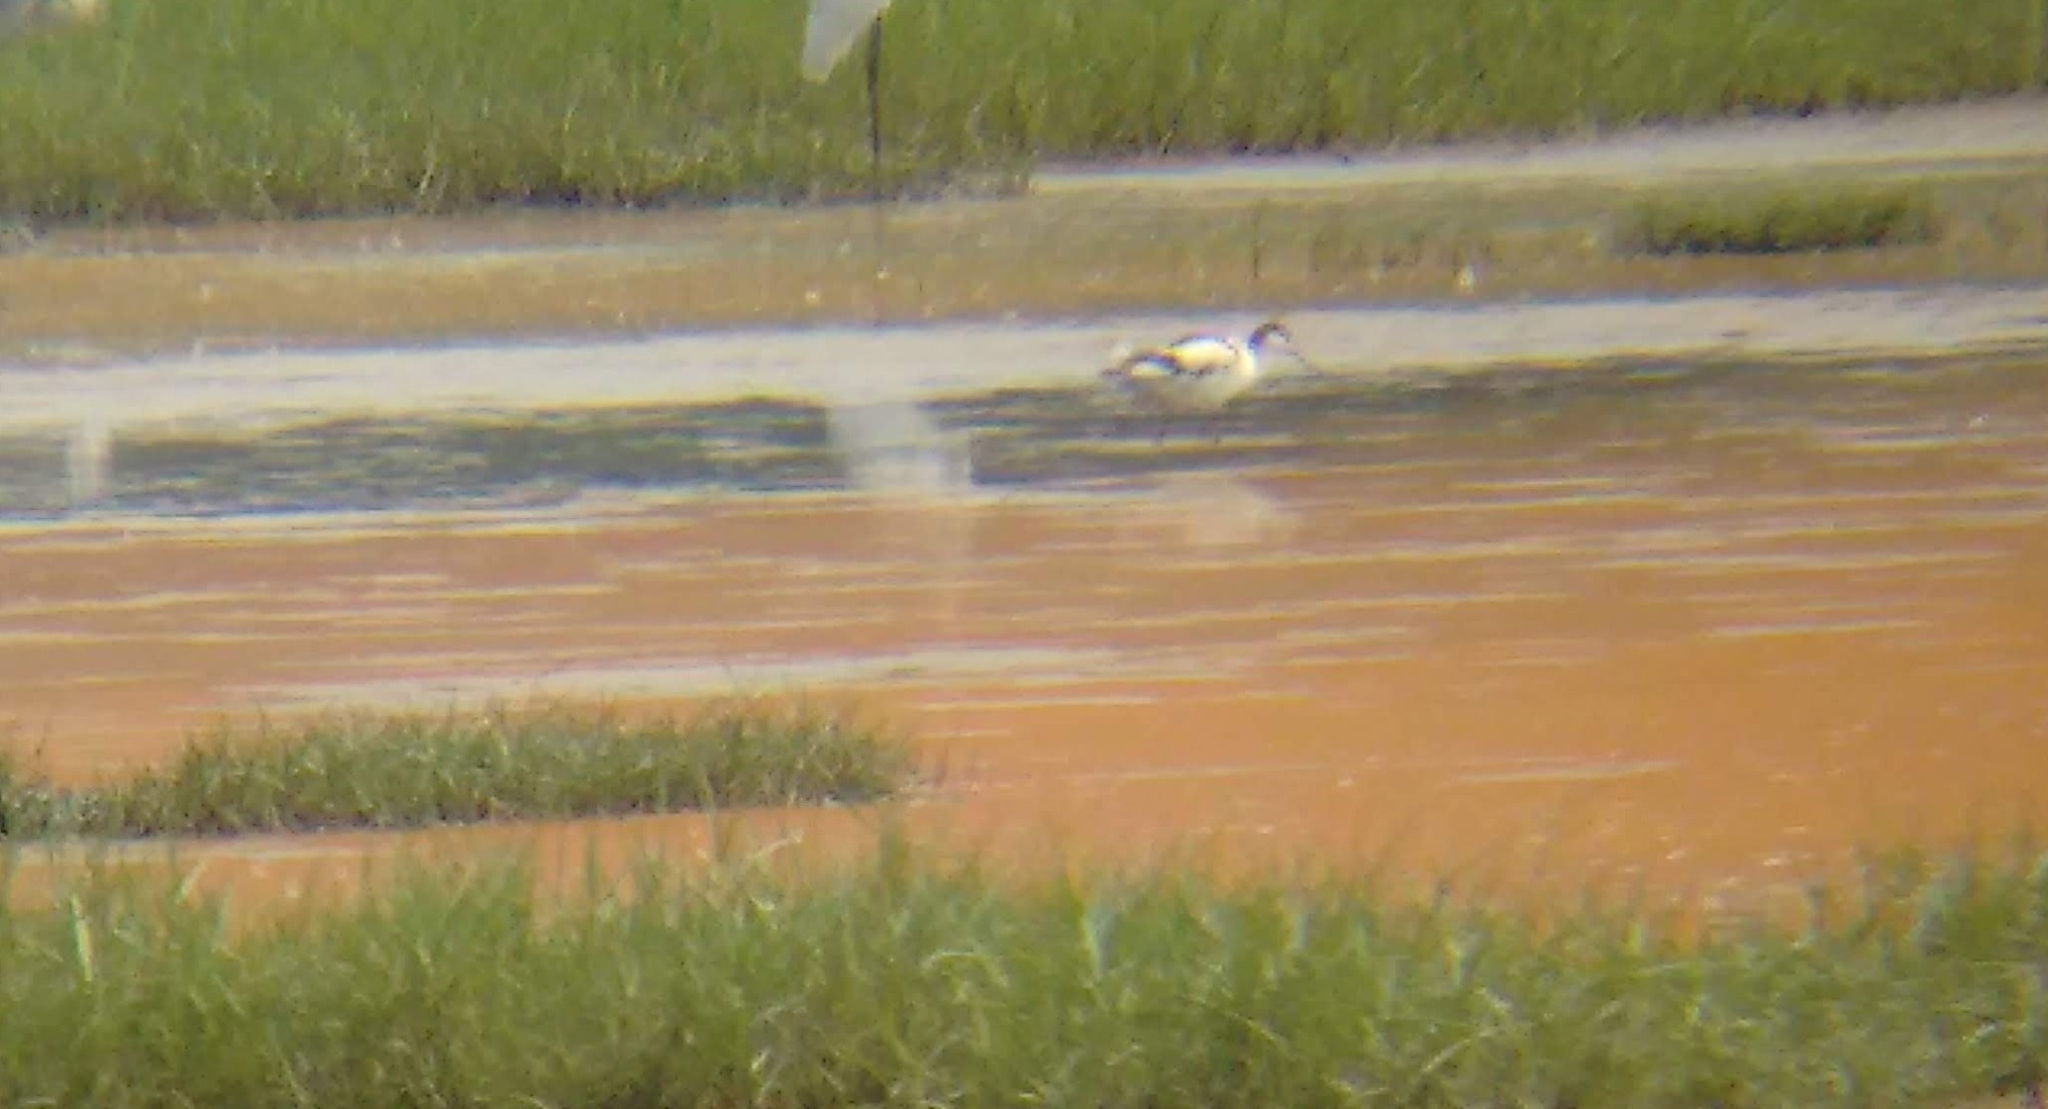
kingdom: Animalia
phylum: Chordata
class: Aves
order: Charadriiformes
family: Recurvirostridae
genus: Recurvirostra
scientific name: Recurvirostra avosetta
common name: Pied avocet
